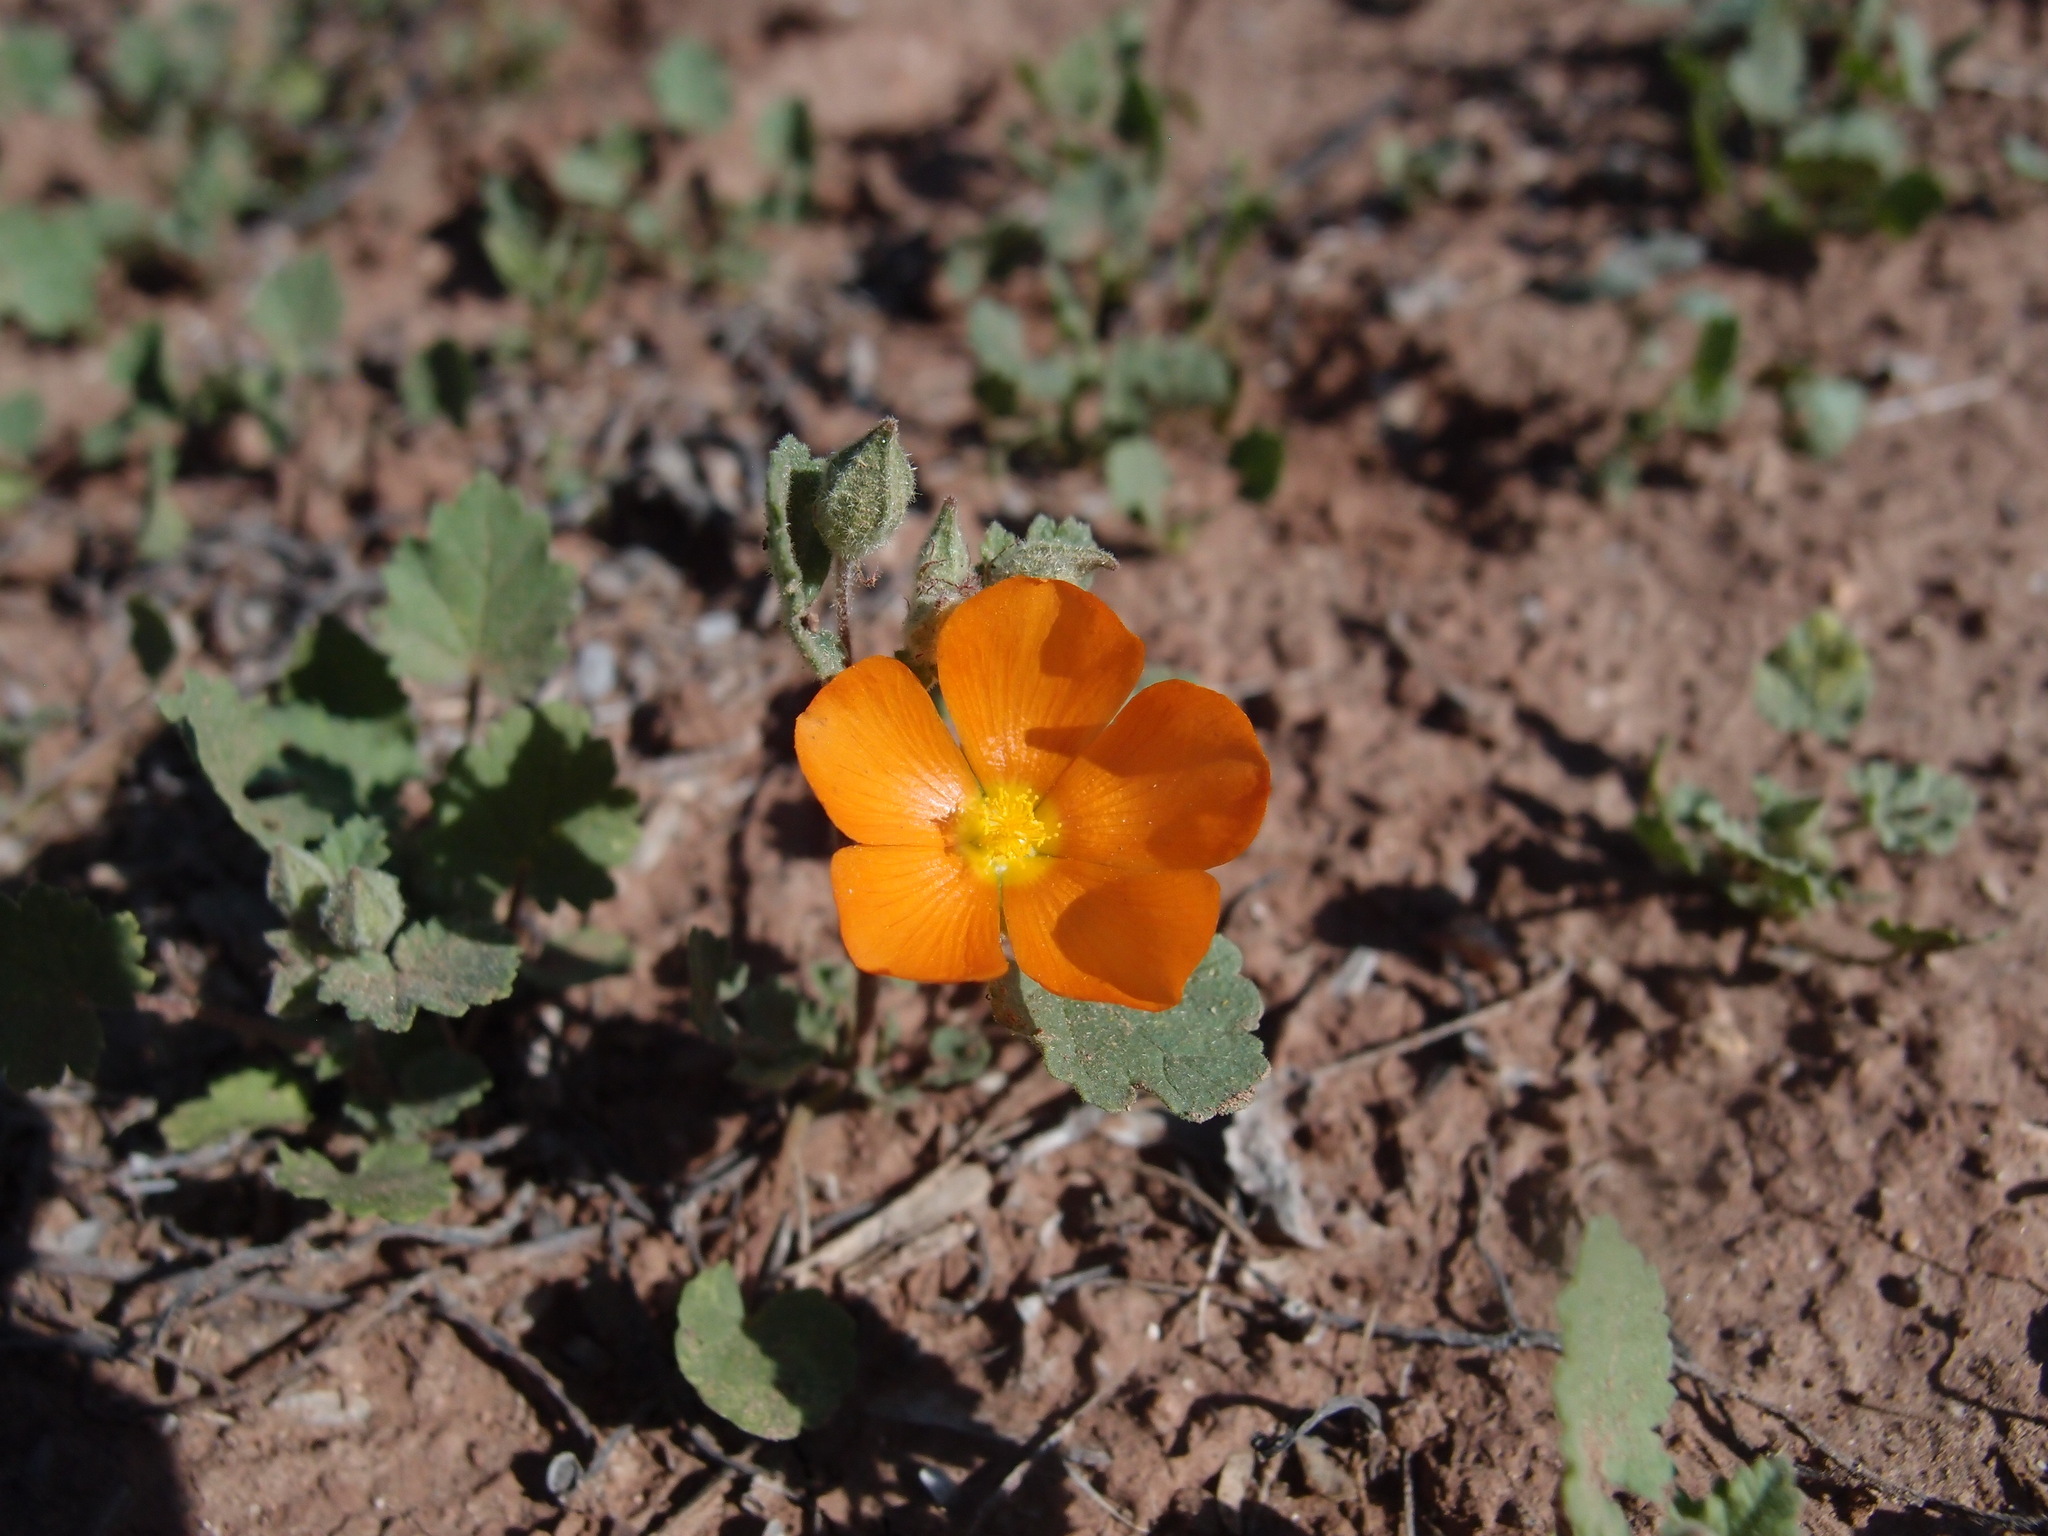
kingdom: Plantae
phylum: Tracheophyta
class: Magnoliopsida
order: Malvales
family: Malvaceae
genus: Sphaeralcea
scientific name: Sphaeralcea coulteri
